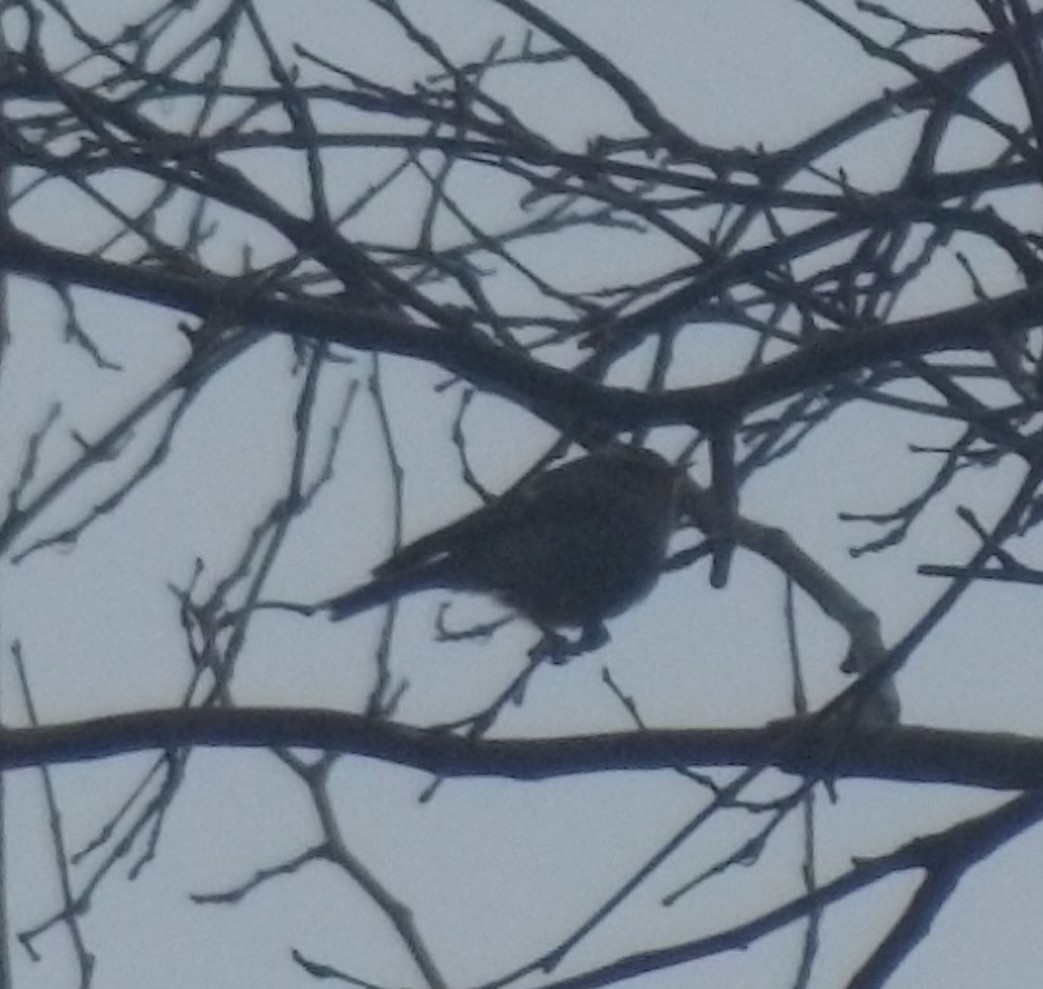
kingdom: Animalia
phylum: Chordata
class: Aves
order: Passeriformes
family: Regulidae
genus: Regulus
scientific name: Regulus satrapa
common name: Golden-crowned kinglet
